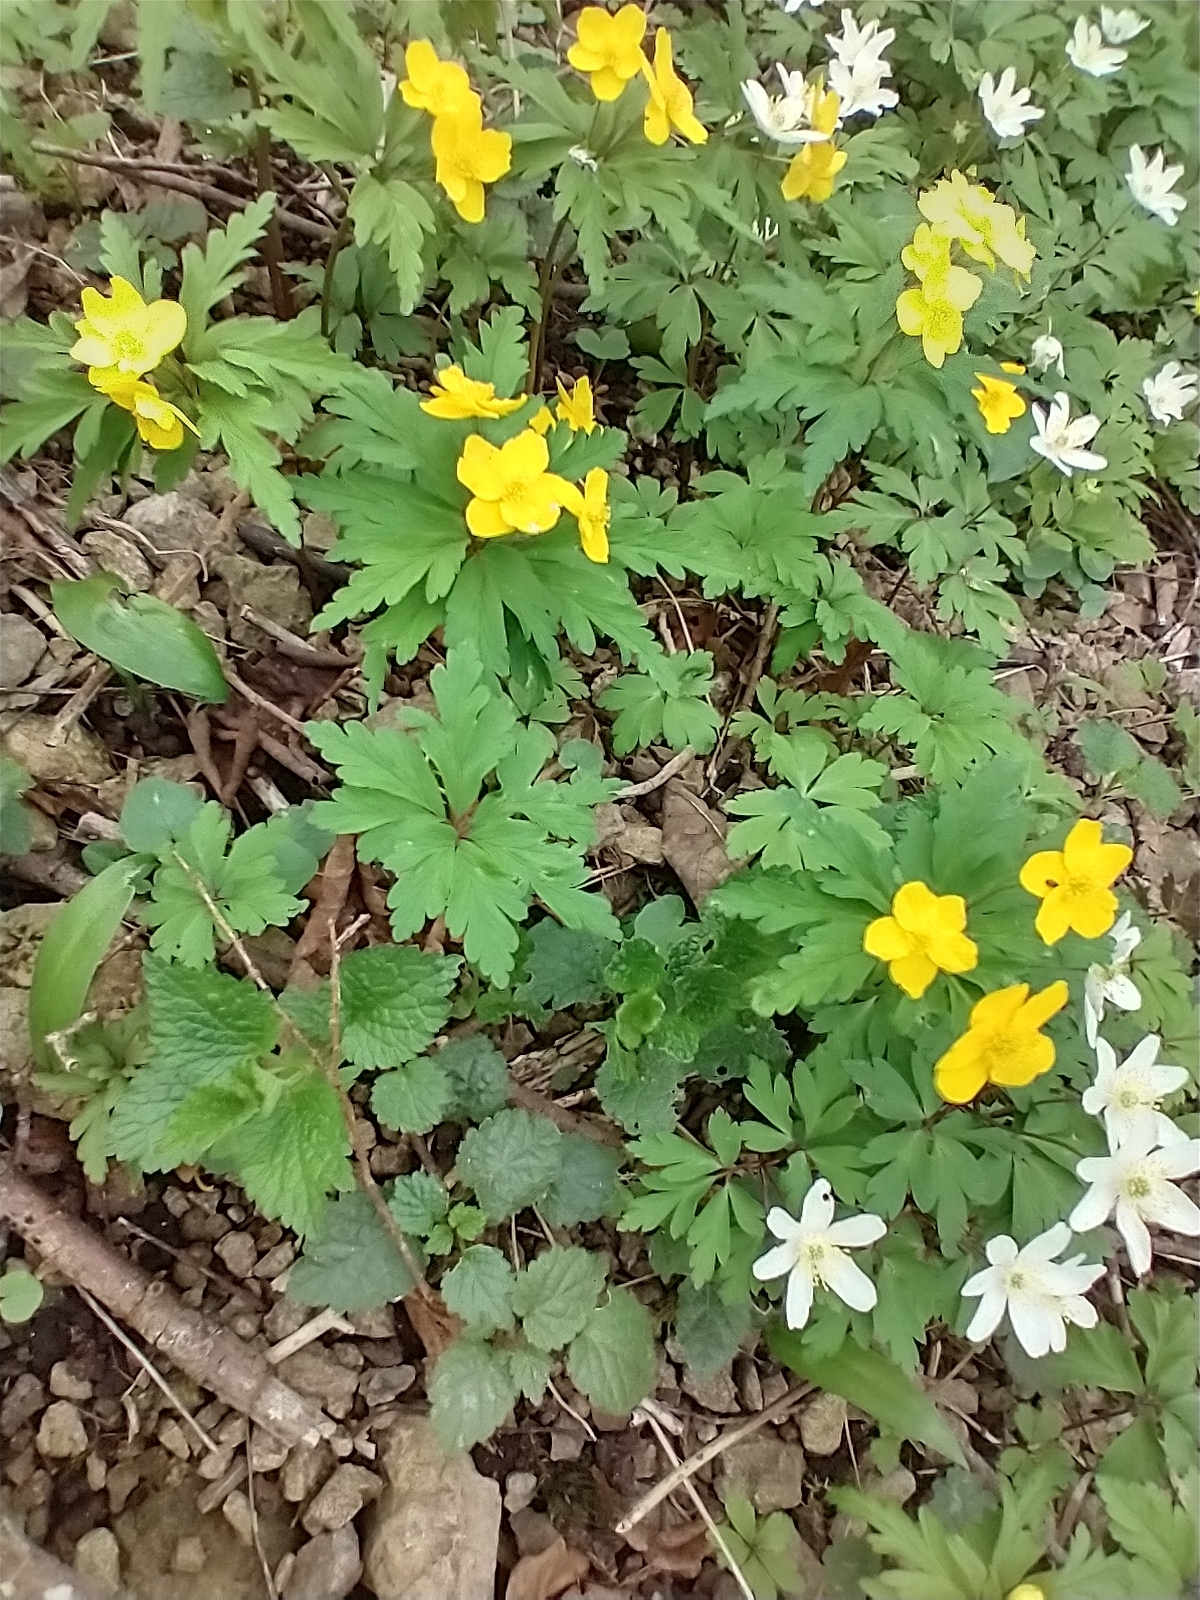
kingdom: Plantae
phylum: Tracheophyta
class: Magnoliopsida
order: Ranunculales
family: Ranunculaceae
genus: Anemone
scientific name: Anemone ranunculoides
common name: Yellow anemone
